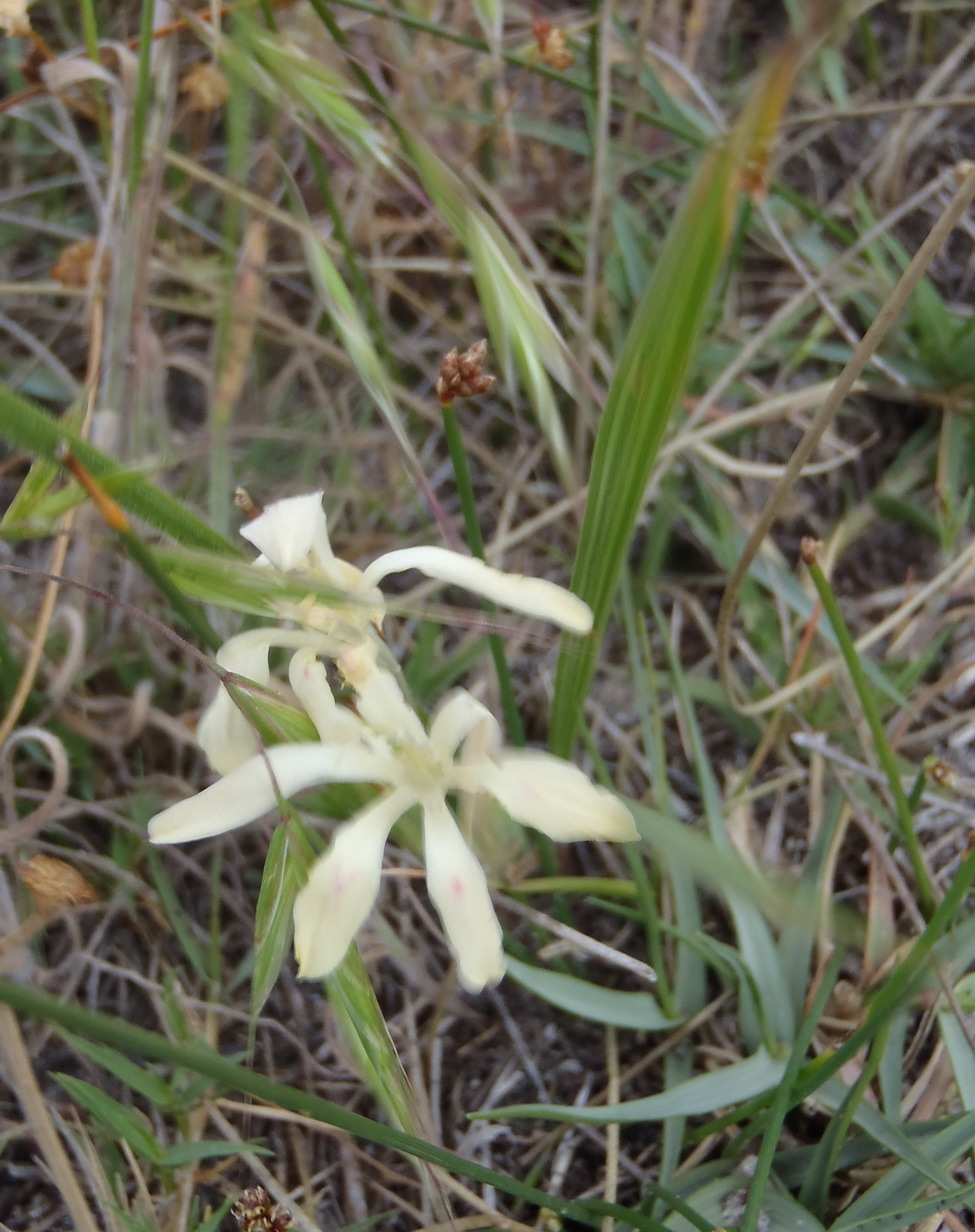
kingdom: Plantae
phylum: Tracheophyta
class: Liliopsida
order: Asparagales
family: Iridaceae
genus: Babiana
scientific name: Babiana tubiflora
